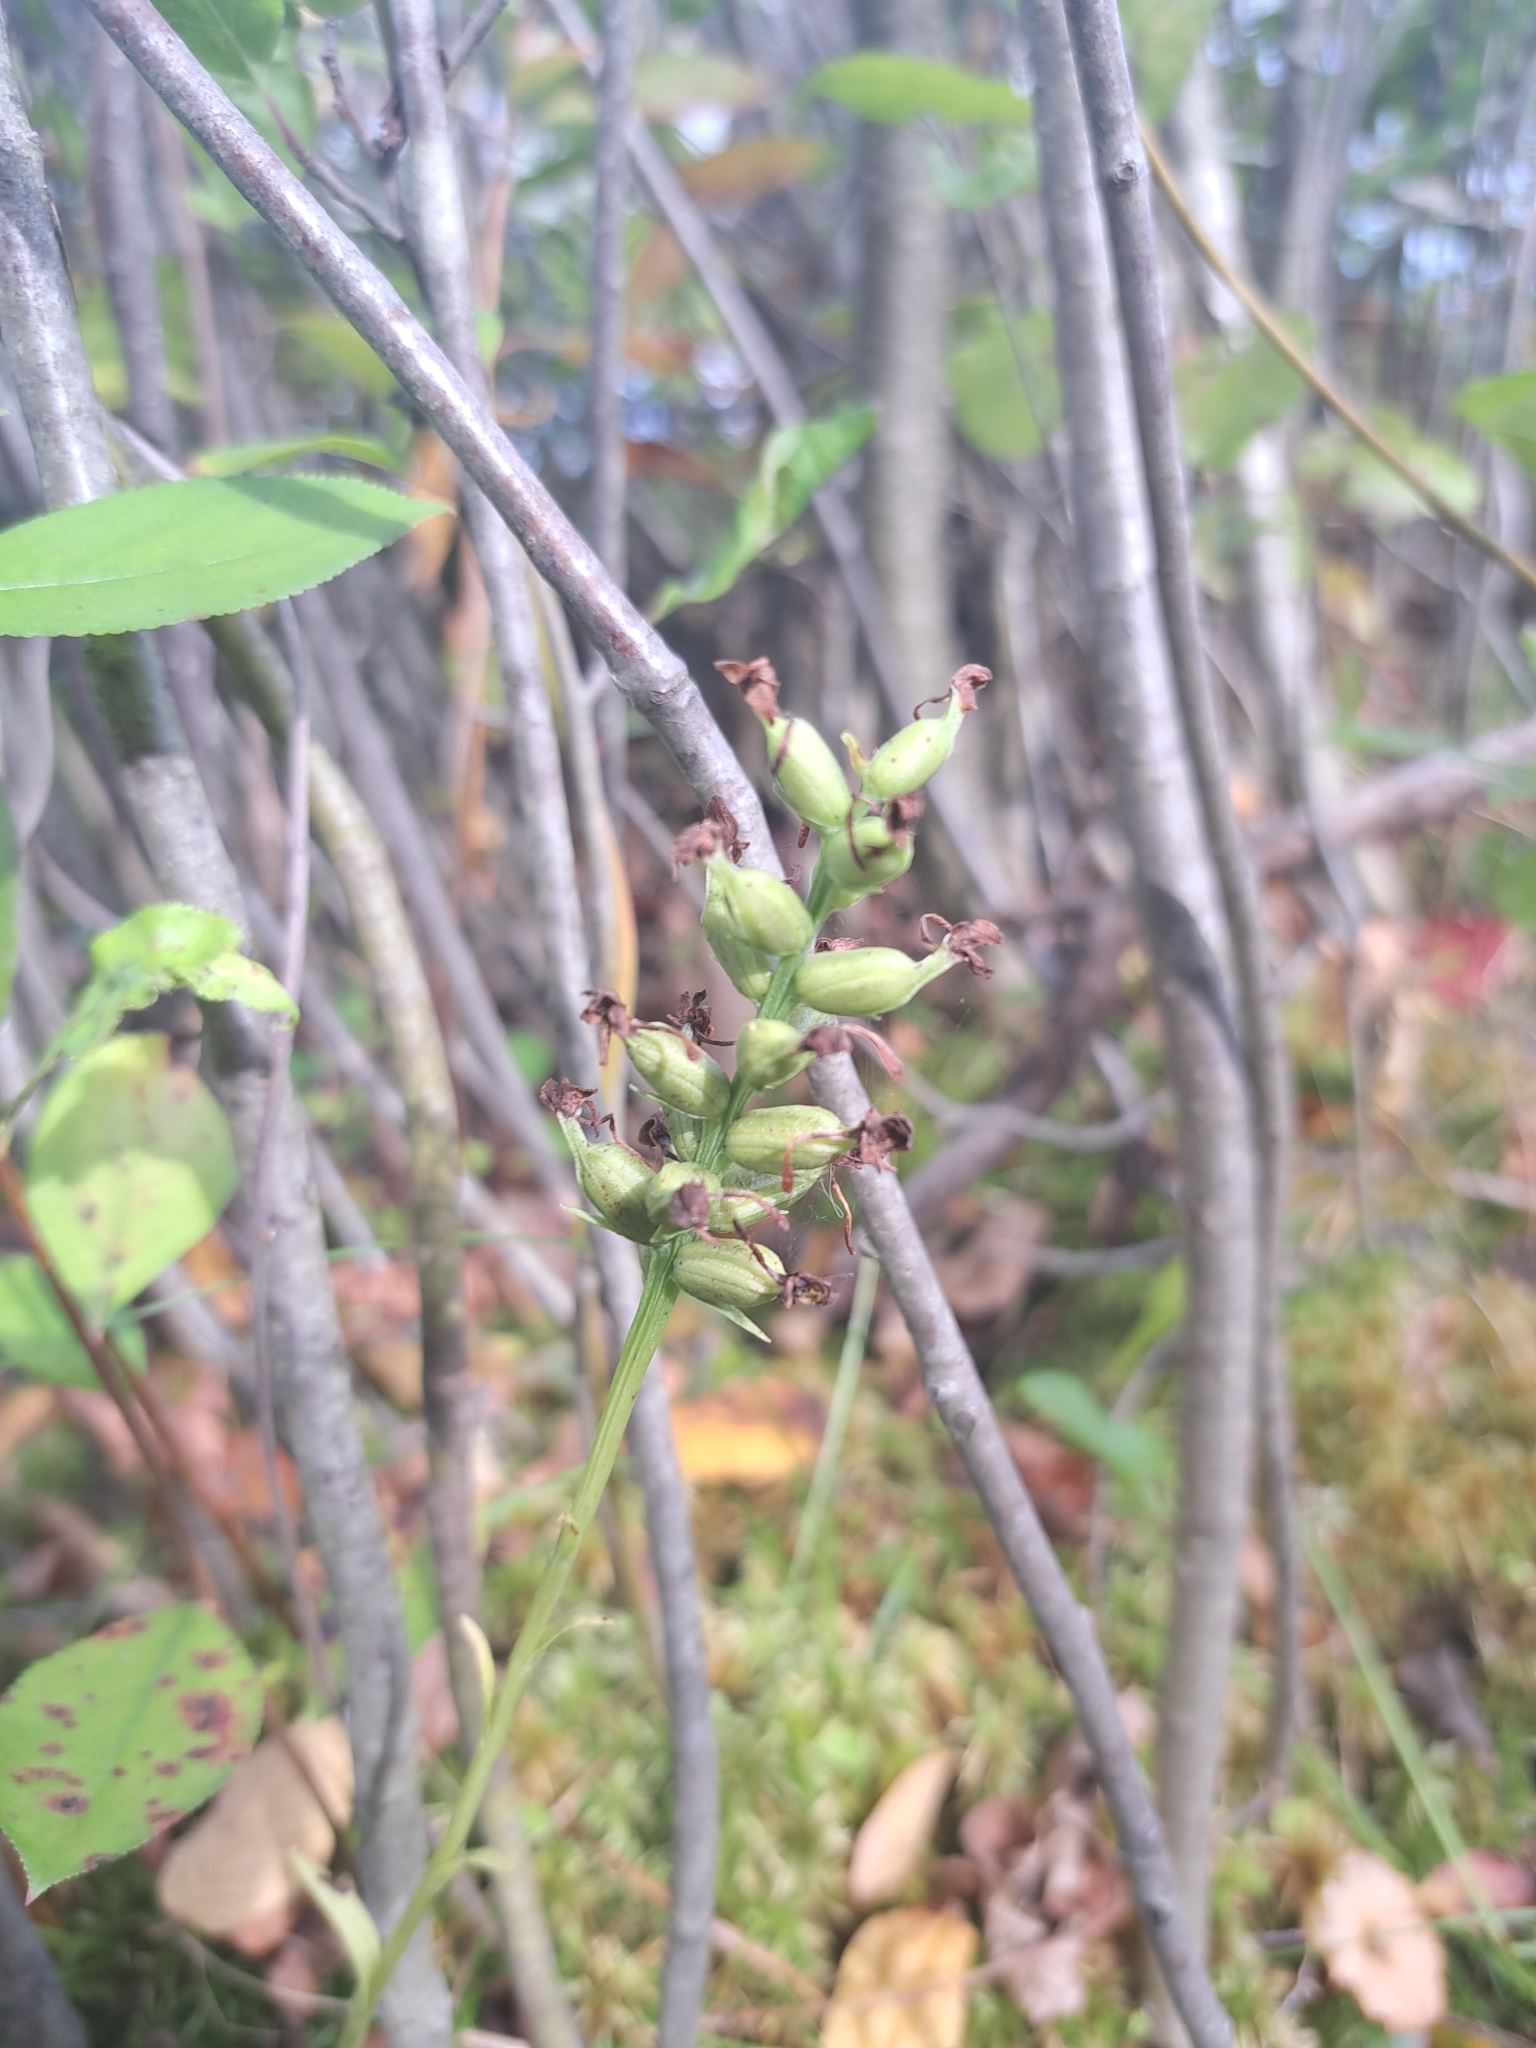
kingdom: Plantae
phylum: Tracheophyta
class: Liliopsida
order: Asparagales
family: Orchidaceae
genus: Platanthera
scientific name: Platanthera clavellata
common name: Club-spur orchid
